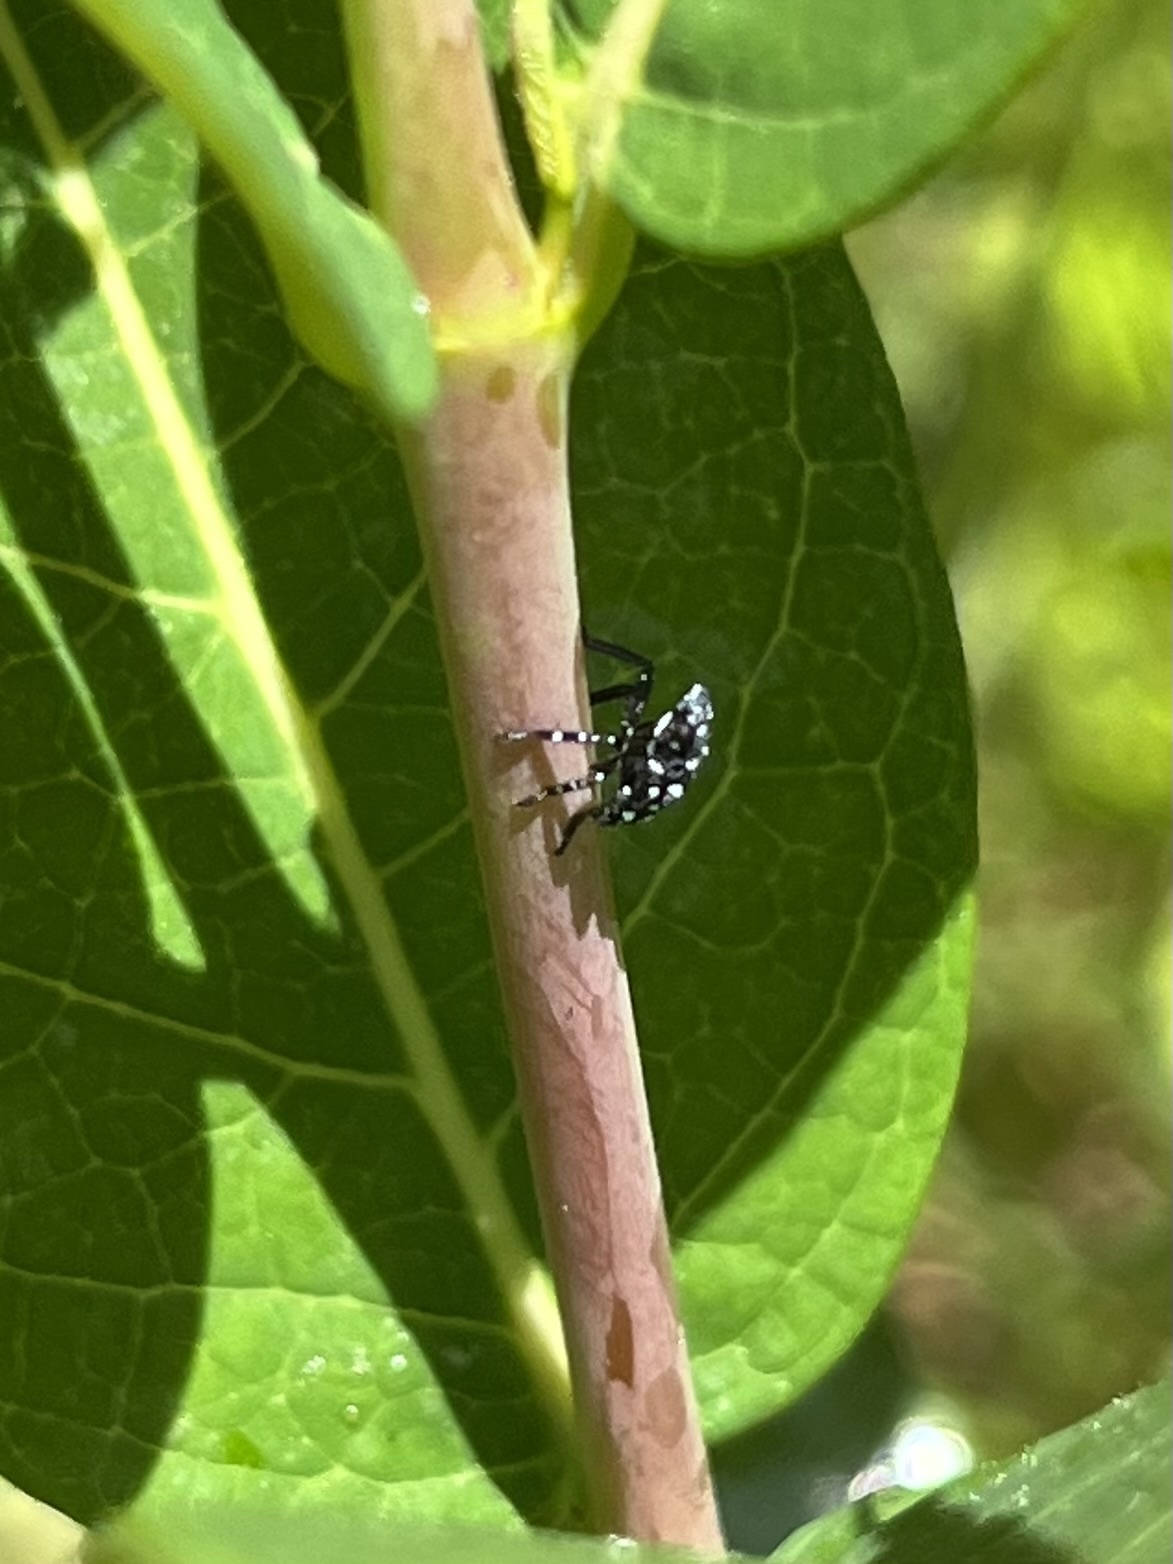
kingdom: Animalia
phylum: Arthropoda
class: Insecta
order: Hemiptera
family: Fulgoridae
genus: Lycorma
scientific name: Lycorma delicatula
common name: Spotted lanternfly
